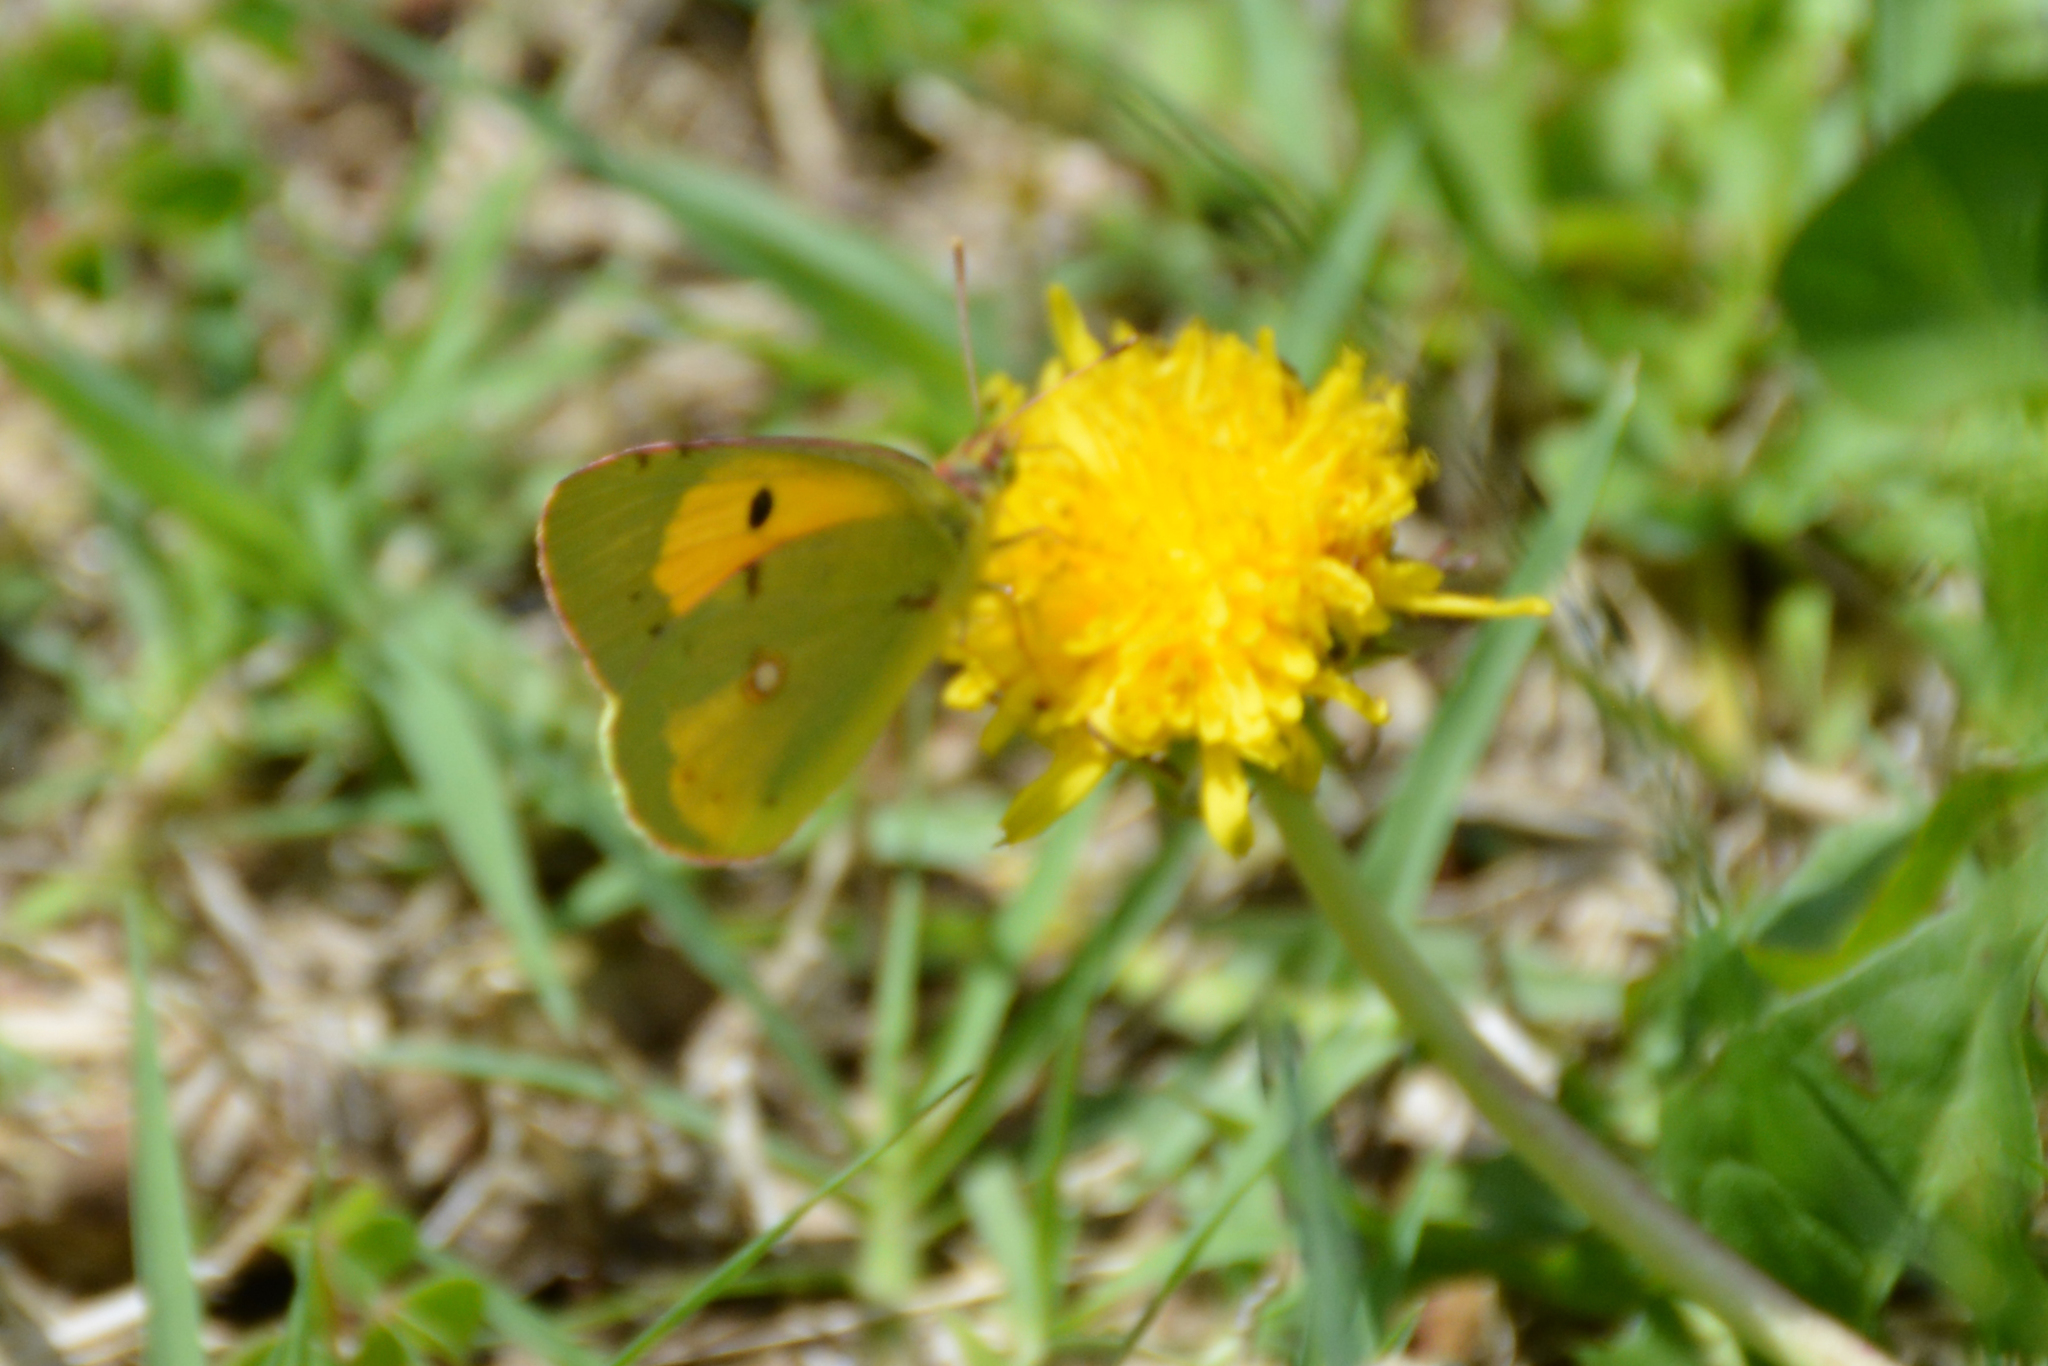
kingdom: Animalia
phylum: Arthropoda
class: Insecta
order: Lepidoptera
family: Pieridae
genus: Colias
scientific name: Colias croceus
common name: Clouded yellow
